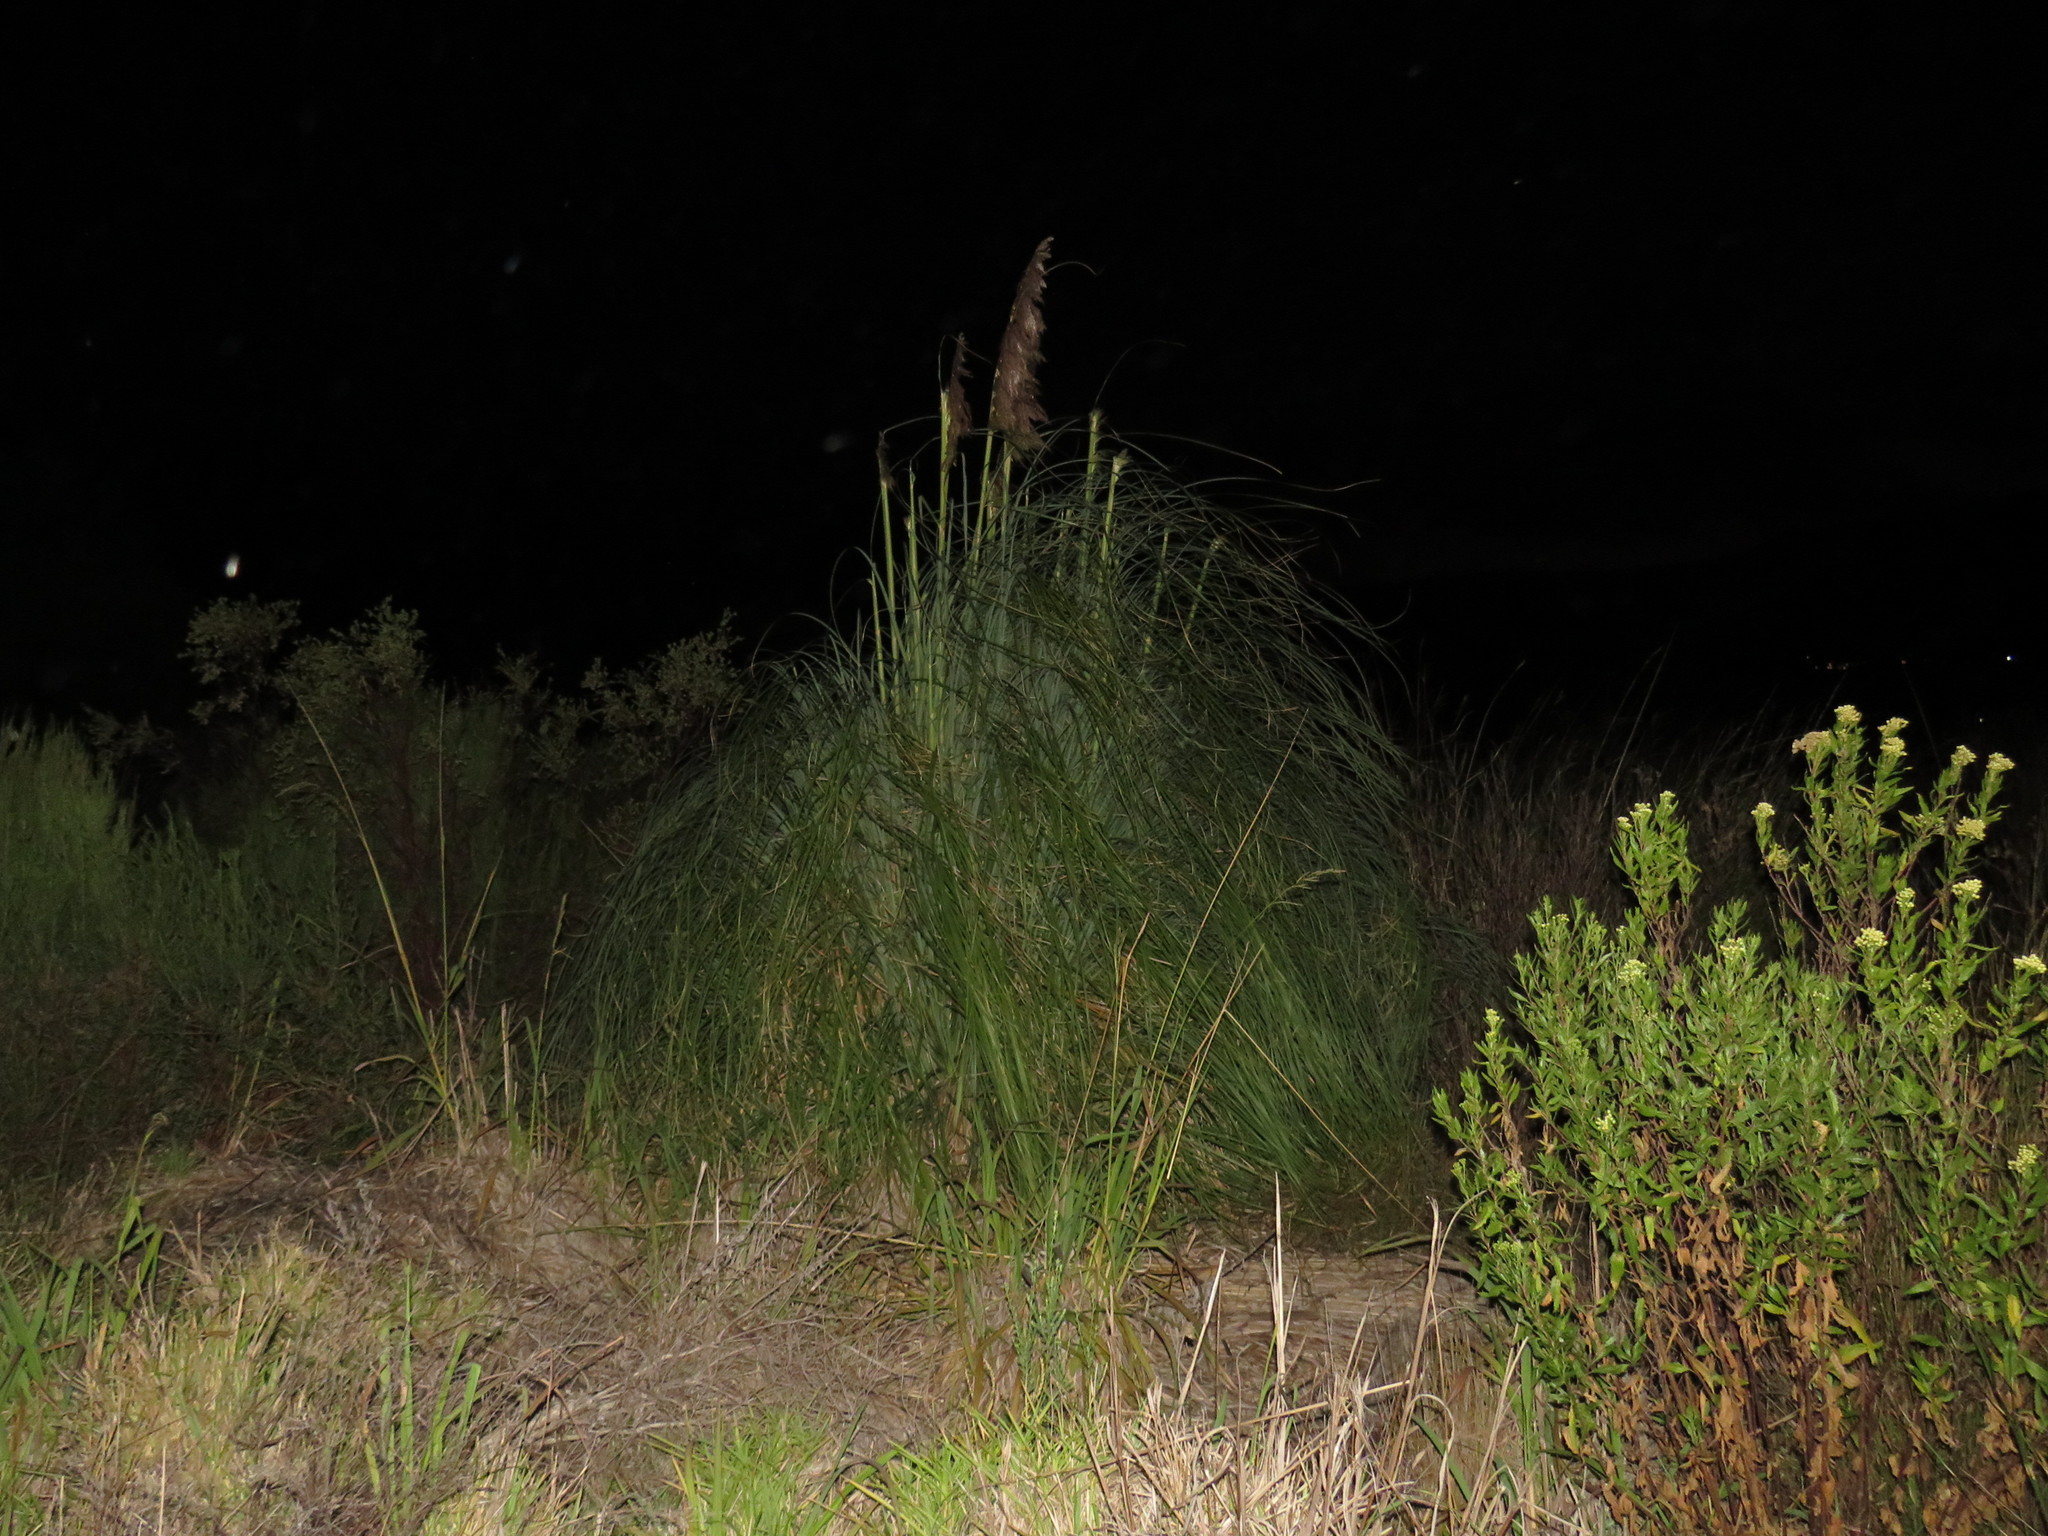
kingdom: Plantae
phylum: Tracheophyta
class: Liliopsida
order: Poales
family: Poaceae
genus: Cortaderia
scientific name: Cortaderia selloana
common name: Uruguayan pampas grass
